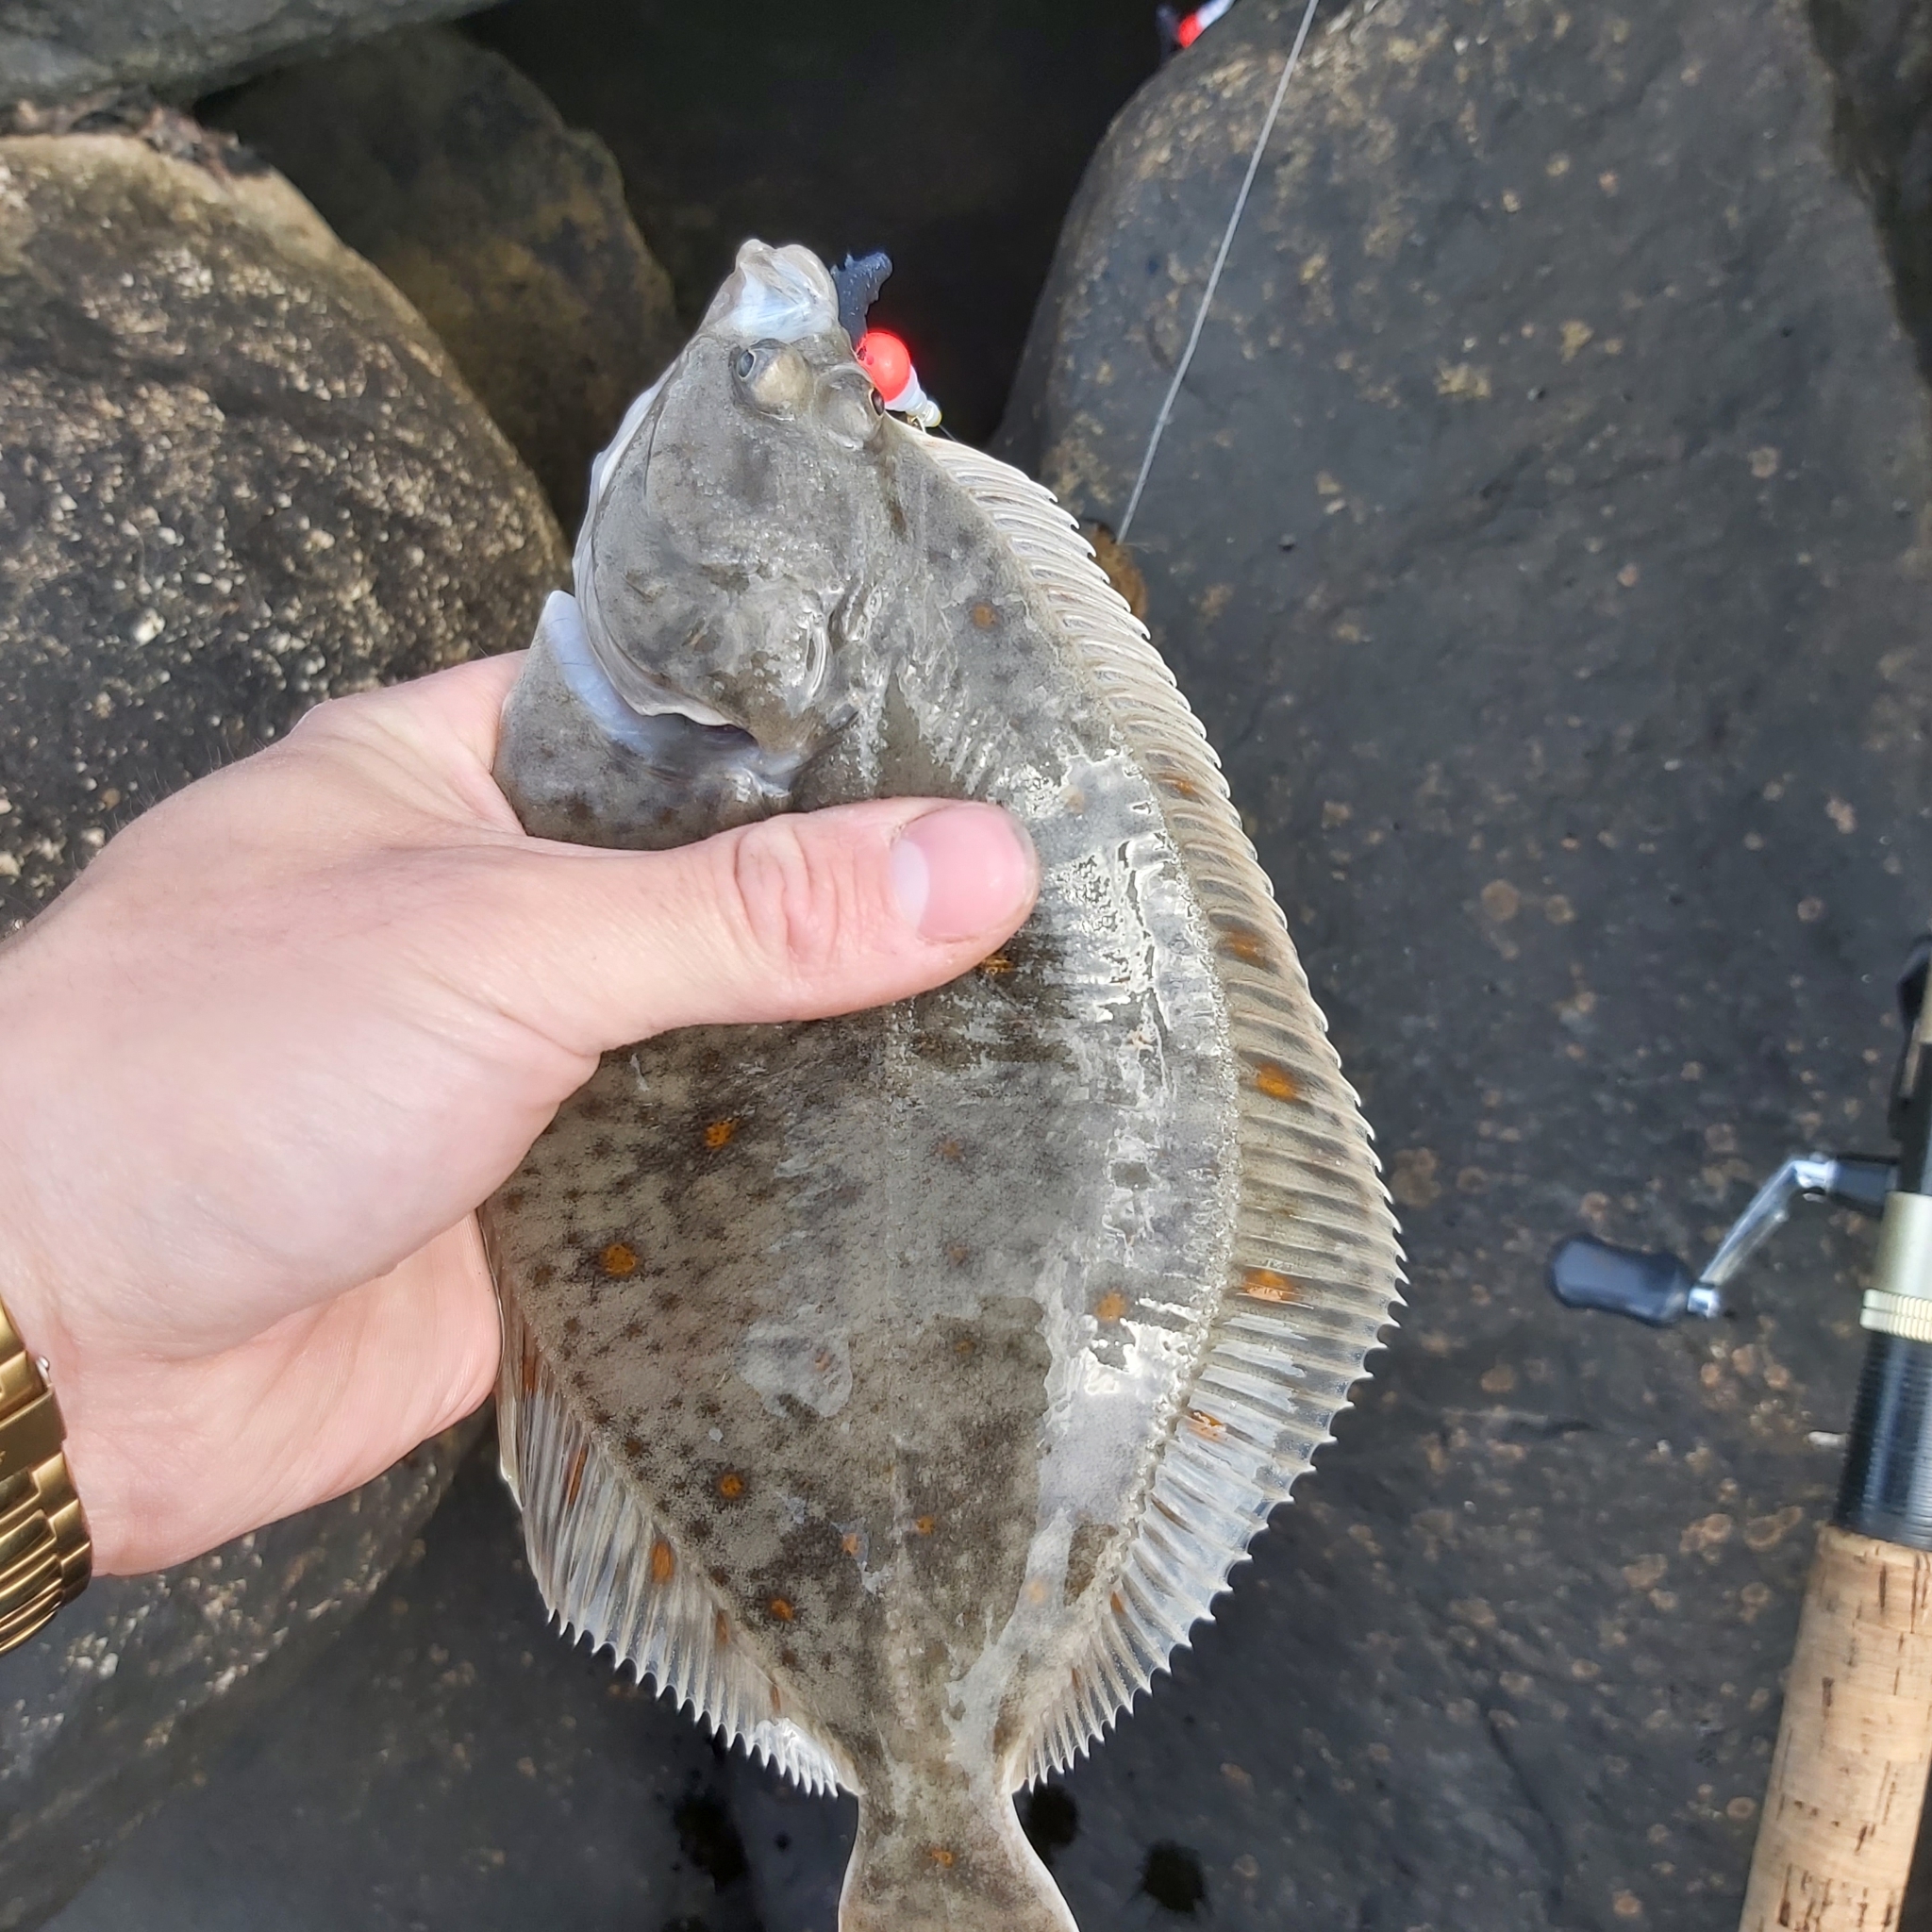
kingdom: Animalia
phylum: Chordata
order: Pleuronectiformes
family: Pleuronectidae
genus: Pleuronectes
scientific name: Pleuronectes platessa
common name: Plaice
